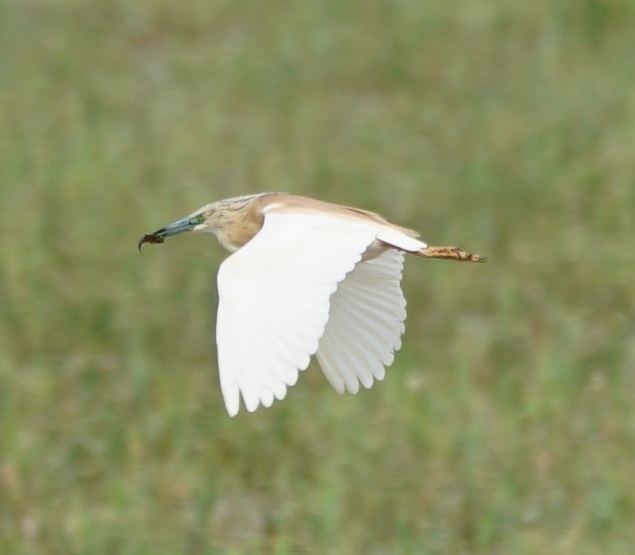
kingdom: Animalia
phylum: Chordata
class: Aves
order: Pelecaniformes
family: Ardeidae
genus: Ardeola
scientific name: Ardeola ralloides
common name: Squacco heron
